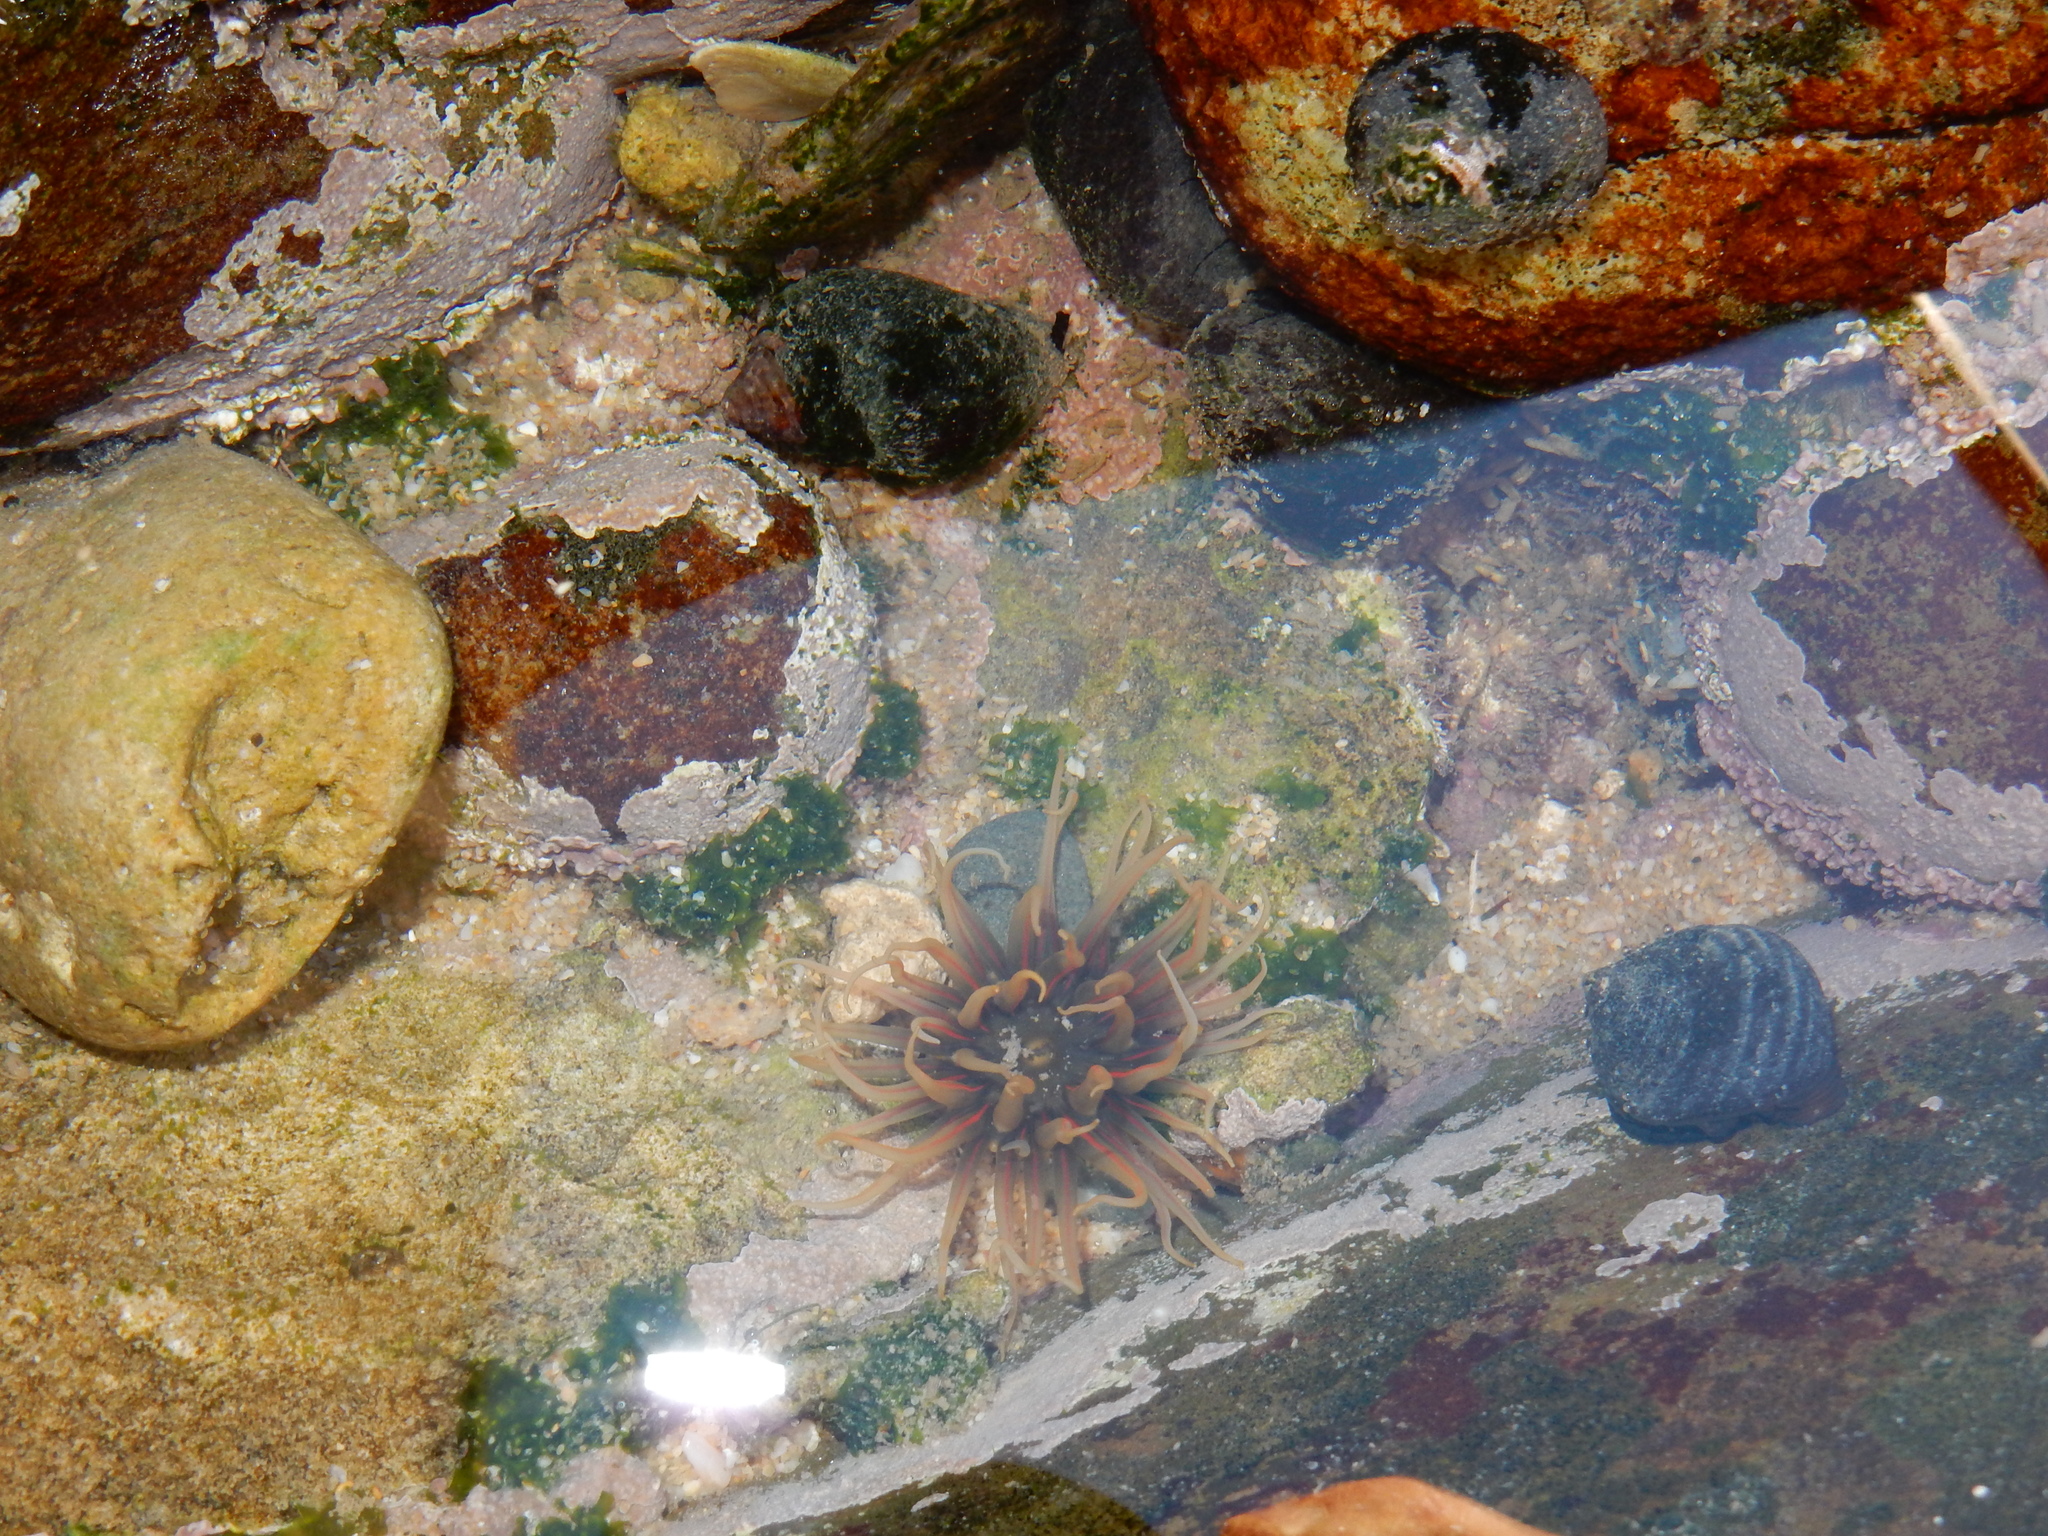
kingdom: Animalia
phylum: Cnidaria
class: Anthozoa
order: Actiniaria
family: Actiniidae
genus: Anthopleura
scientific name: Anthopleura michaelseni
